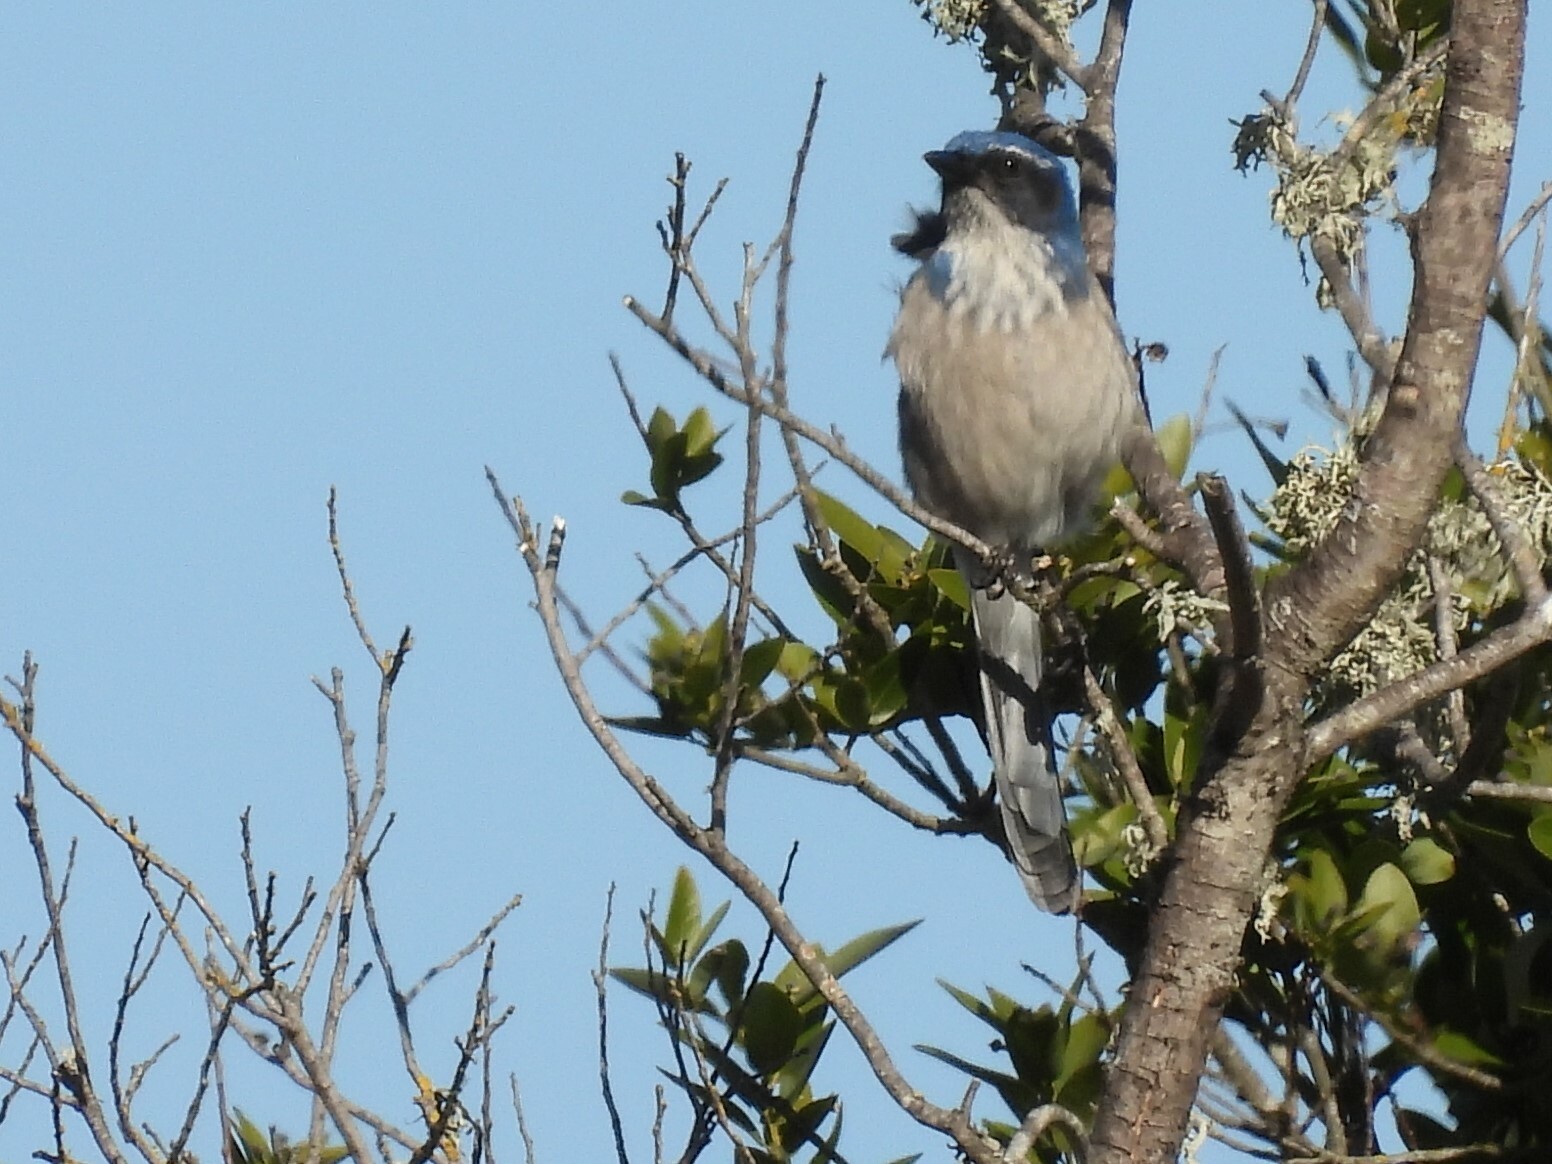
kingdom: Animalia
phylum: Chordata
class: Aves
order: Passeriformes
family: Corvidae
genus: Aphelocoma
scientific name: Aphelocoma californica
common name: California scrub-jay
